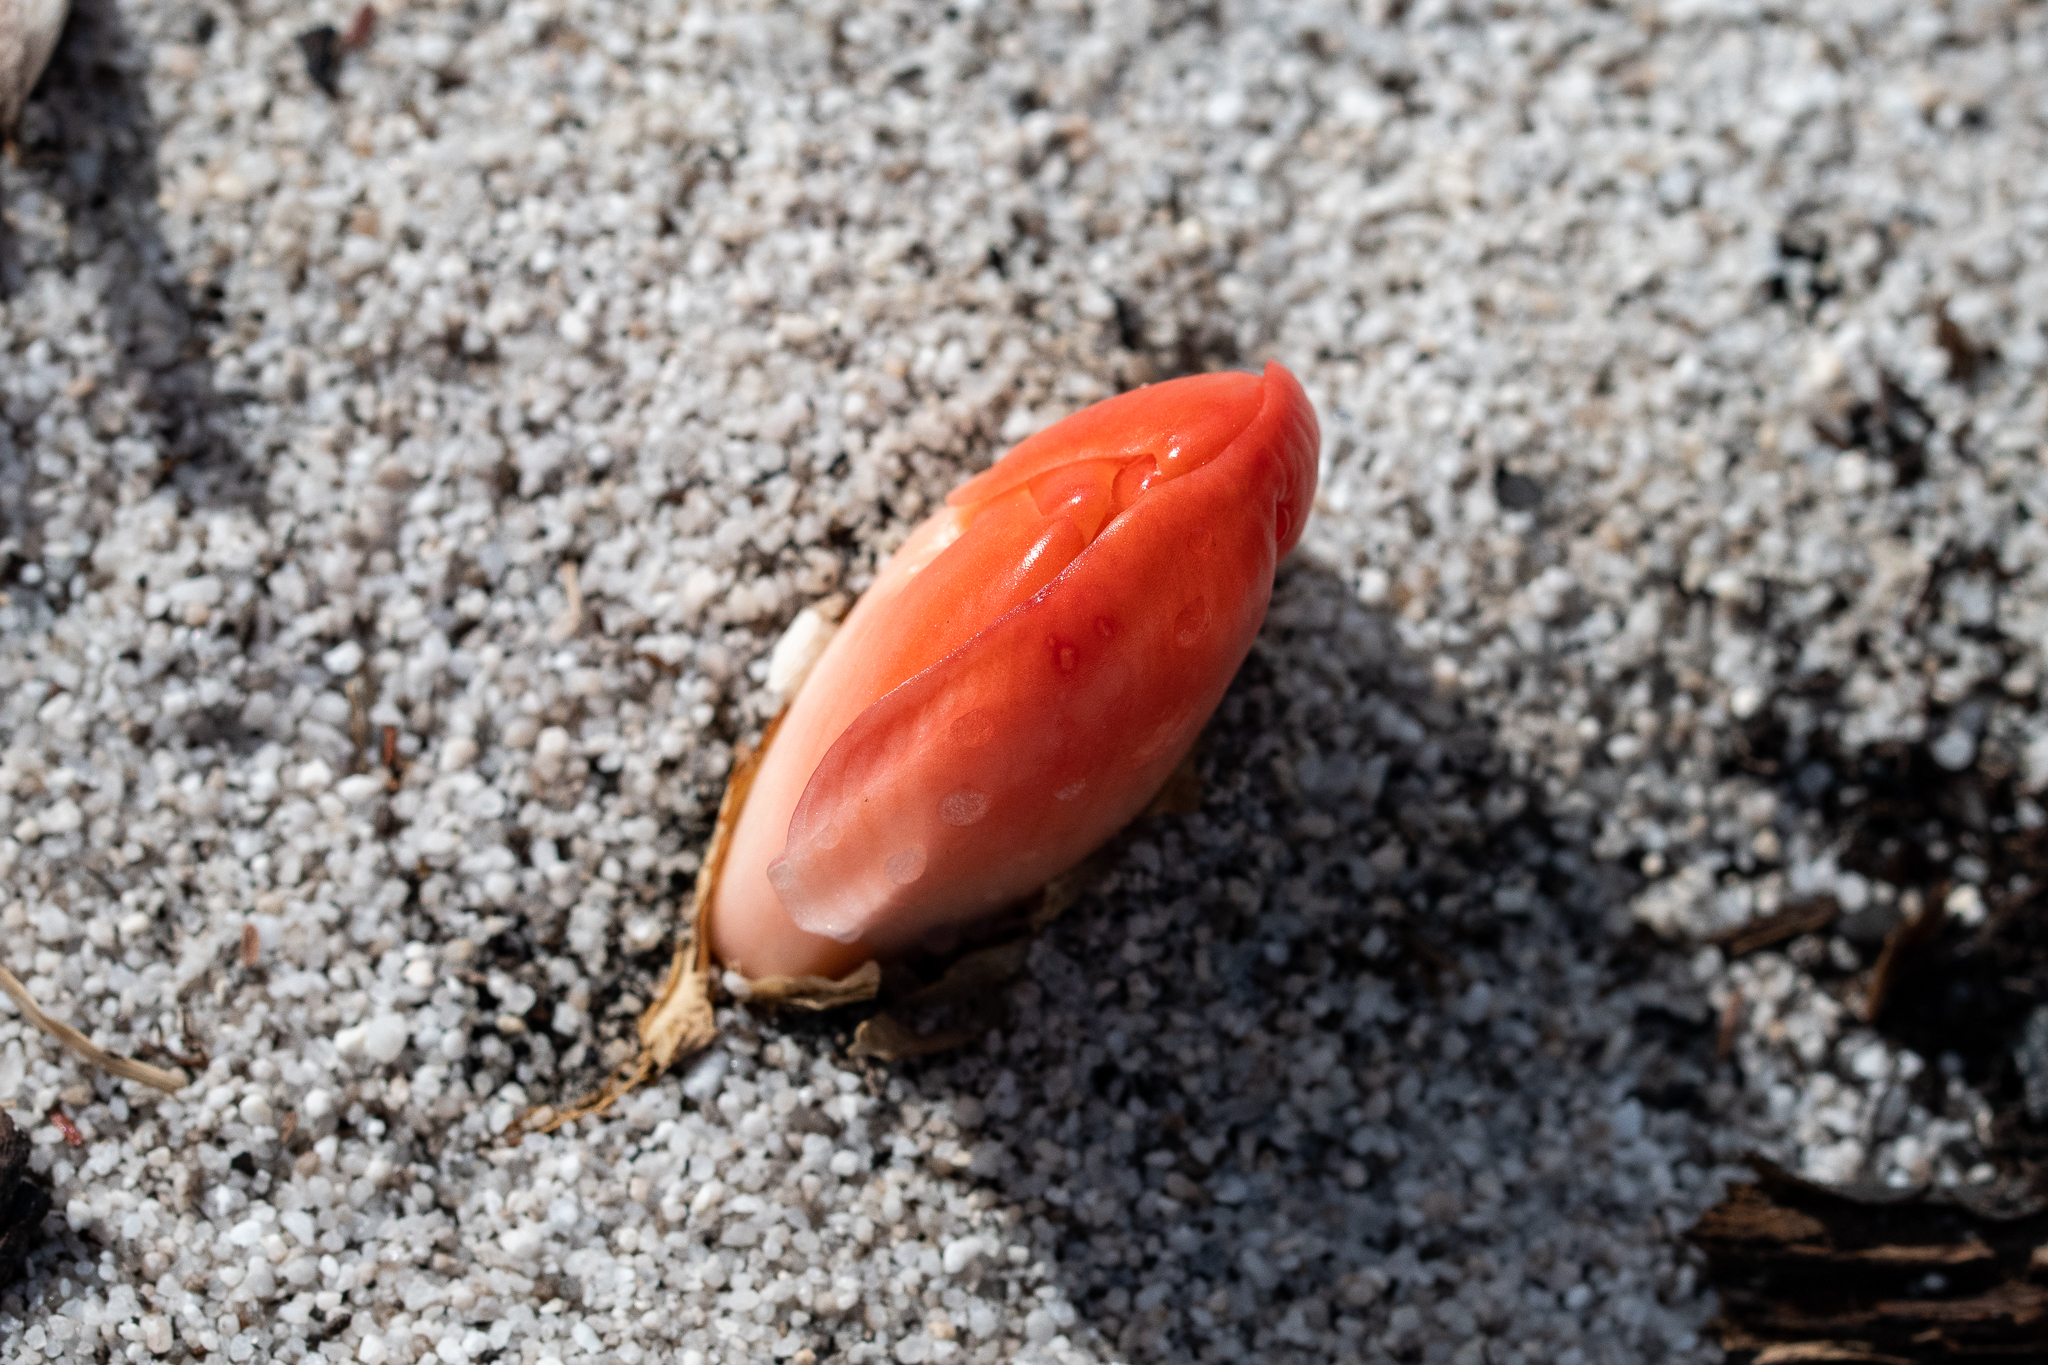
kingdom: Plantae
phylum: Tracheophyta
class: Liliopsida
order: Asparagales
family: Amaryllidaceae
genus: Haemanthus
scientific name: Haemanthus coccineus
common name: Cape-tulip
